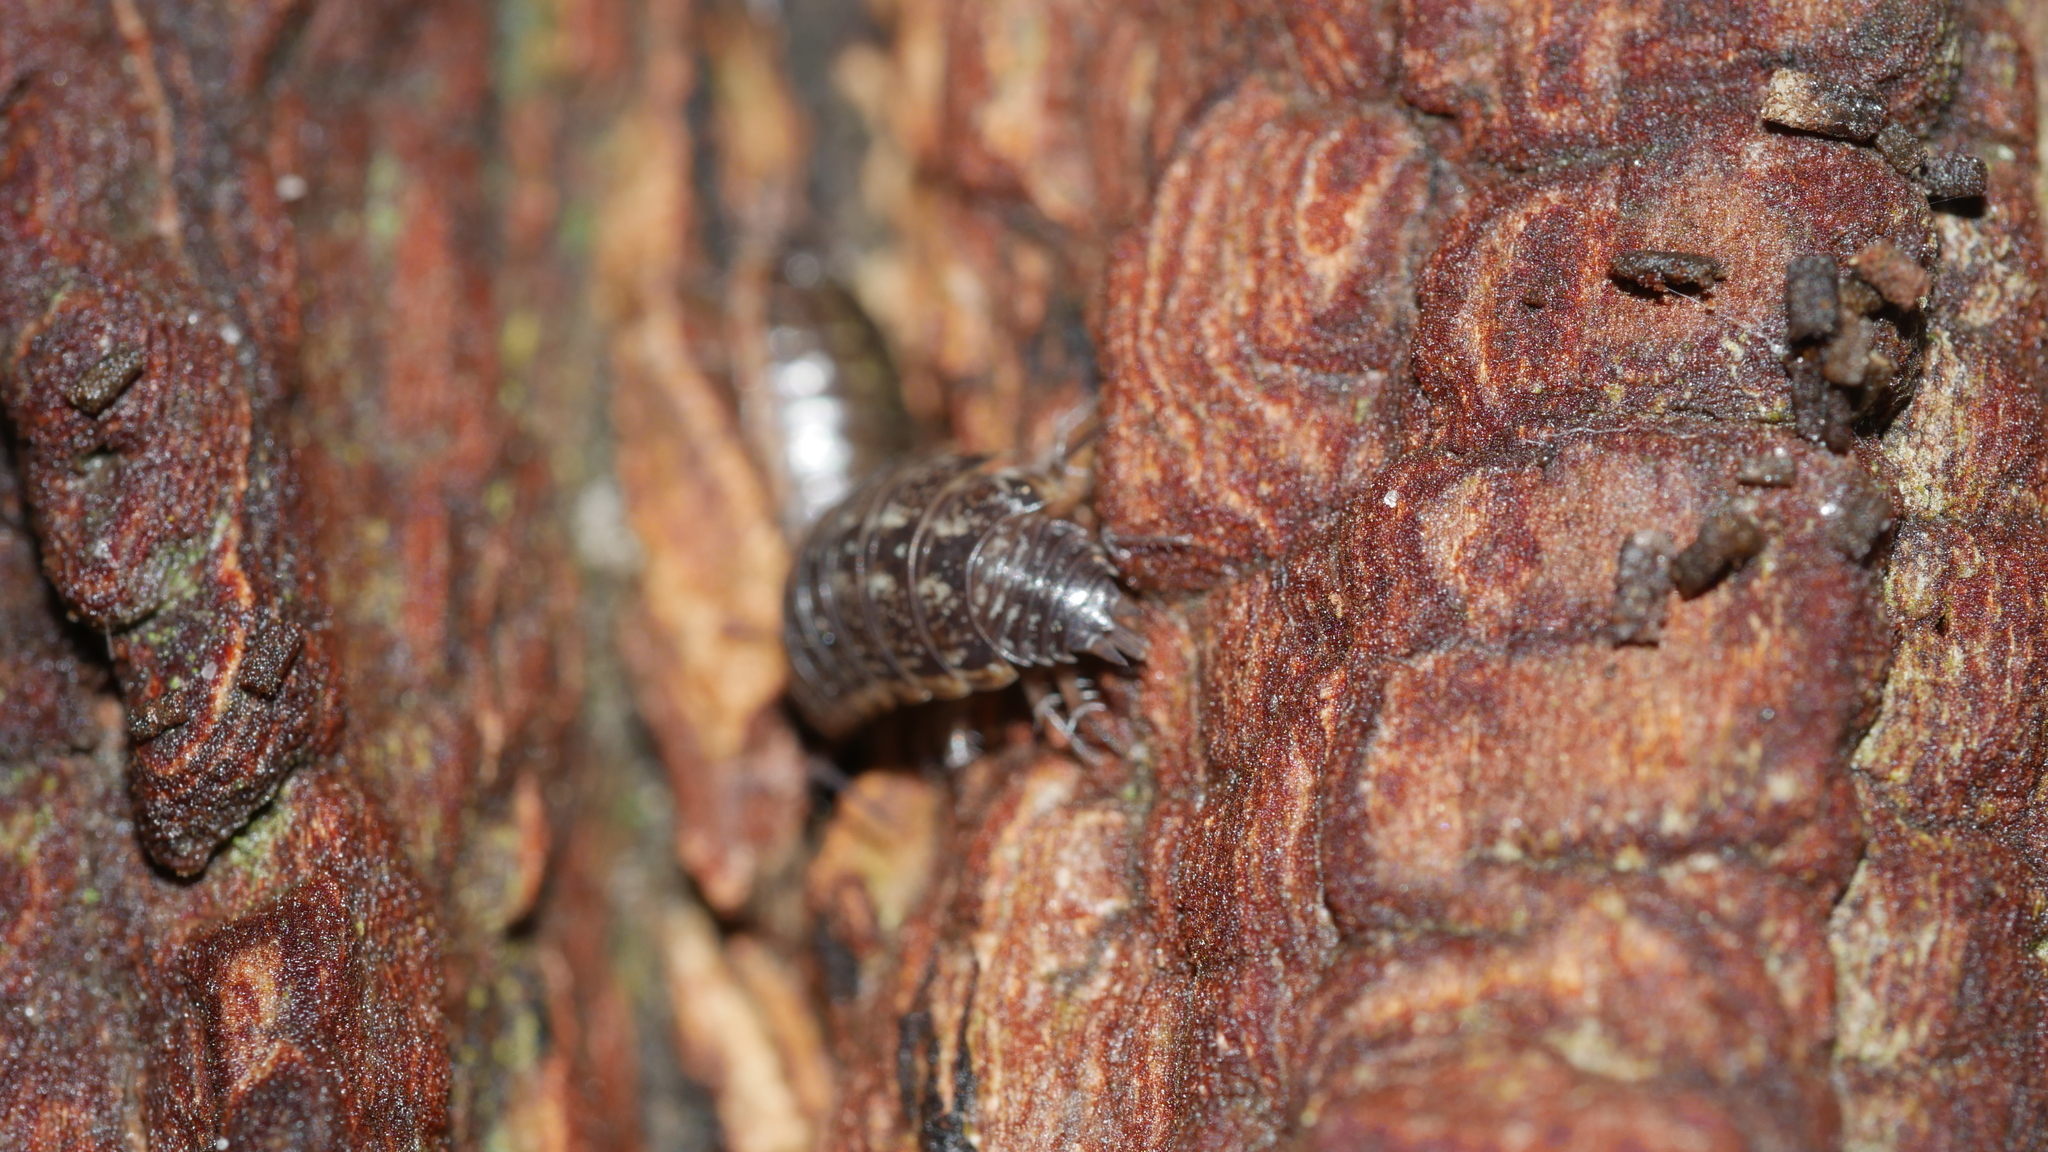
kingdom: Animalia
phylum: Arthropoda
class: Malacostraca
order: Isopoda
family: Philosciidae
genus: Philoscia
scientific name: Philoscia muscorum
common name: Common striped woodlouse
